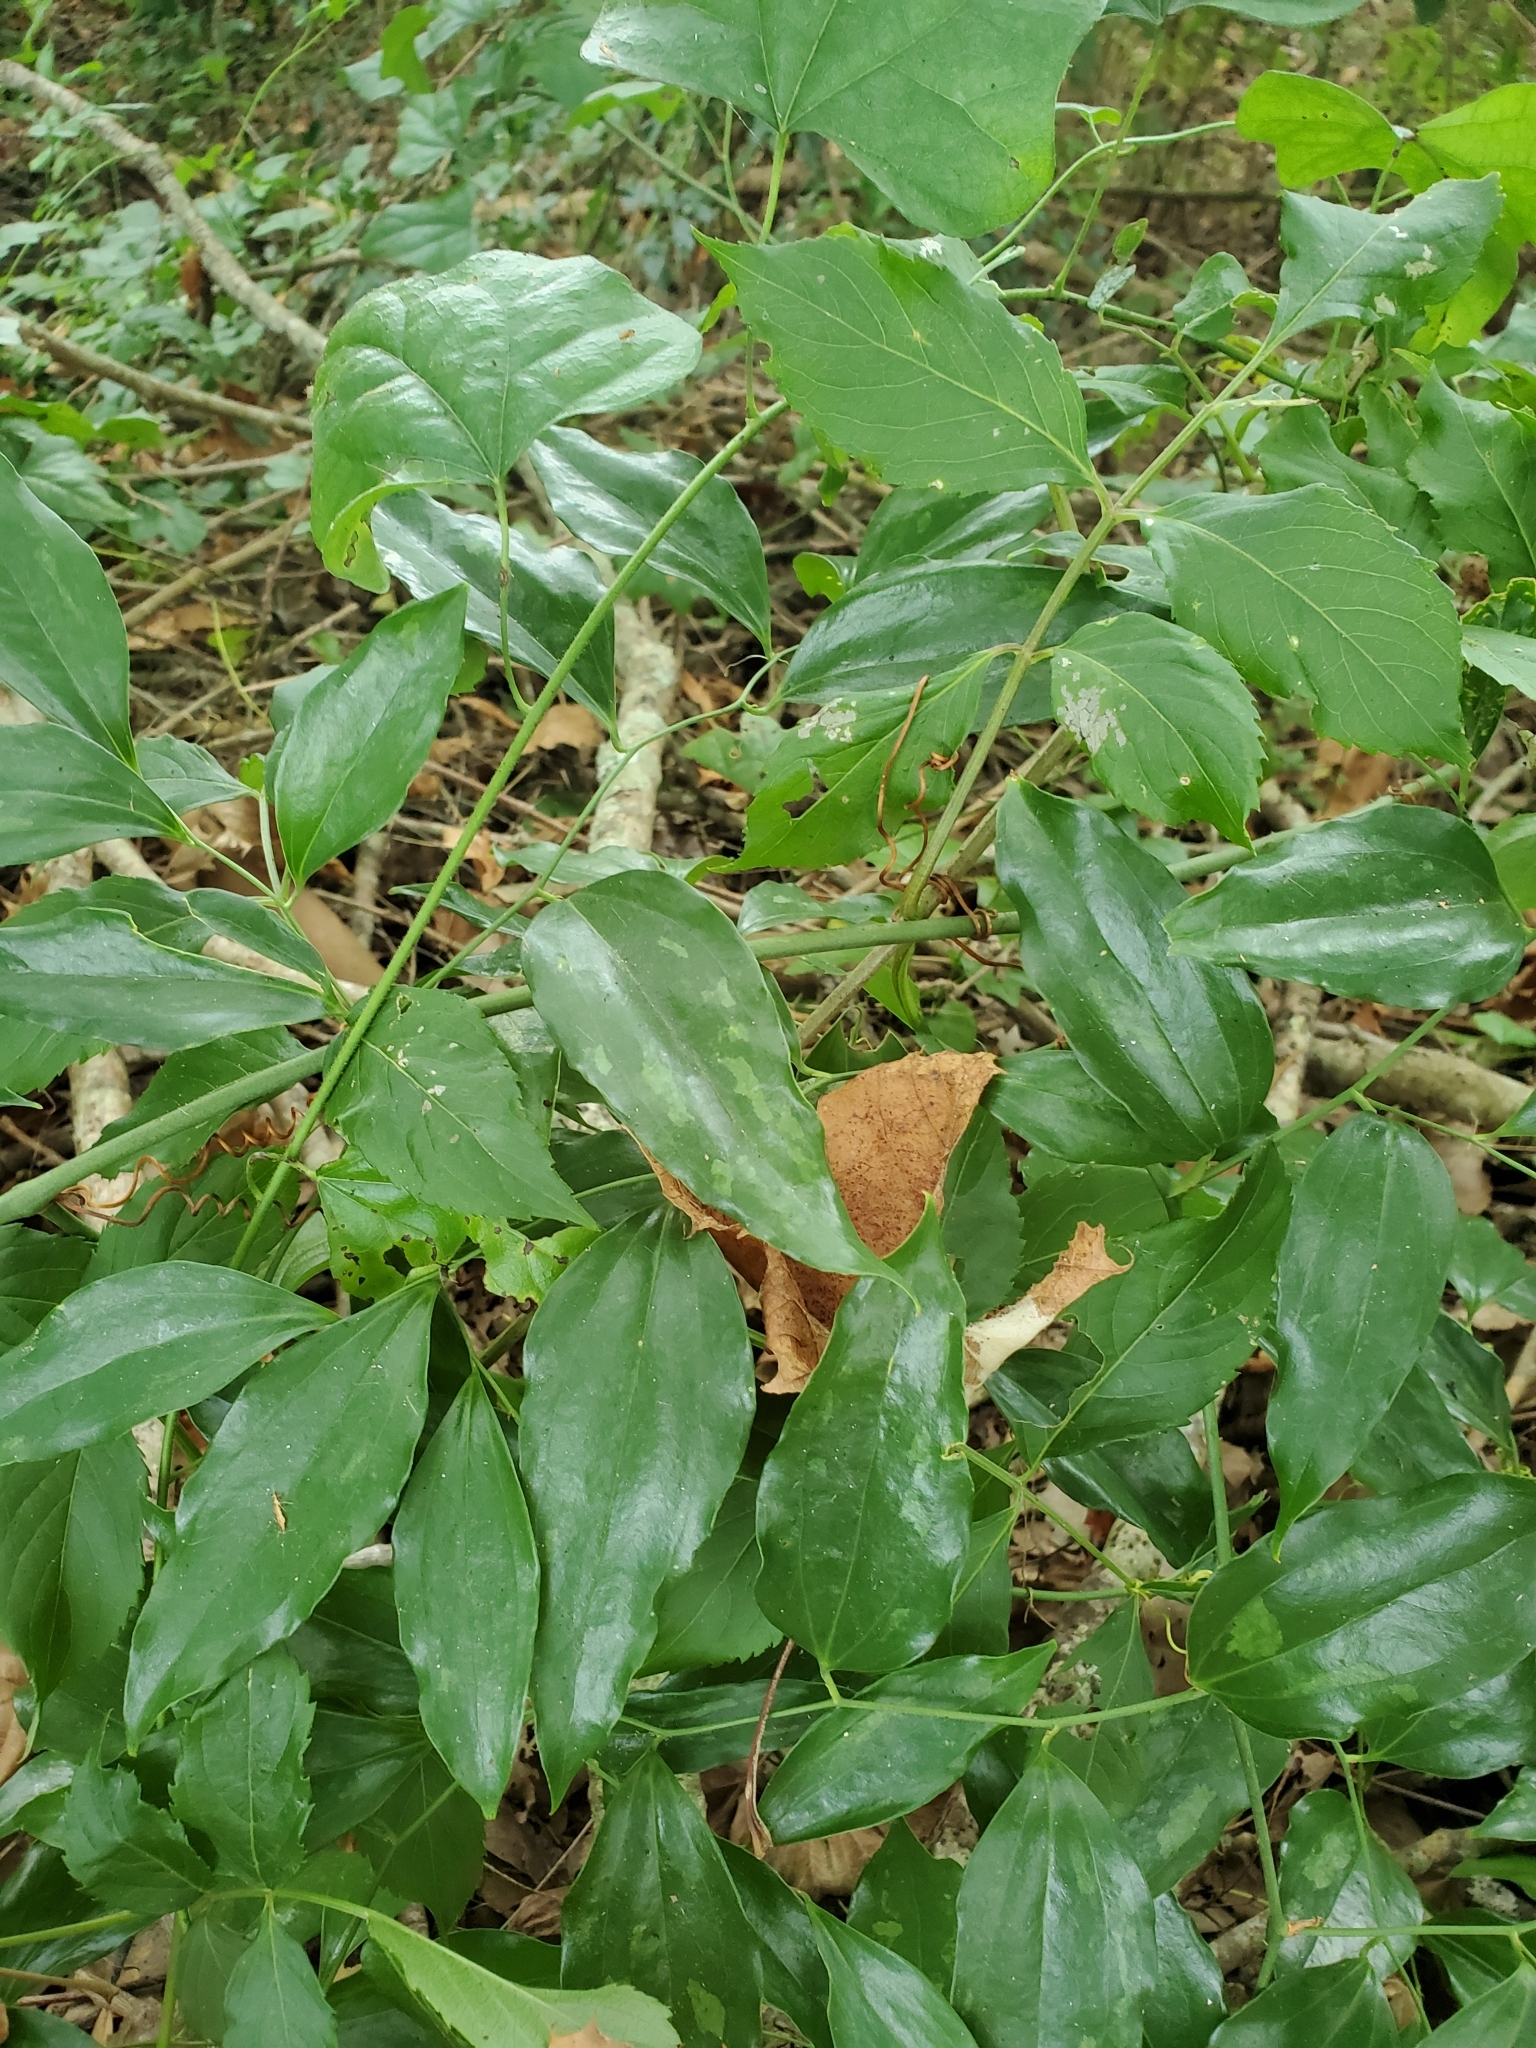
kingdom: Plantae
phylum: Tracheophyta
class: Liliopsida
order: Liliales
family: Smilacaceae
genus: Smilax
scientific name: Smilax maritima
